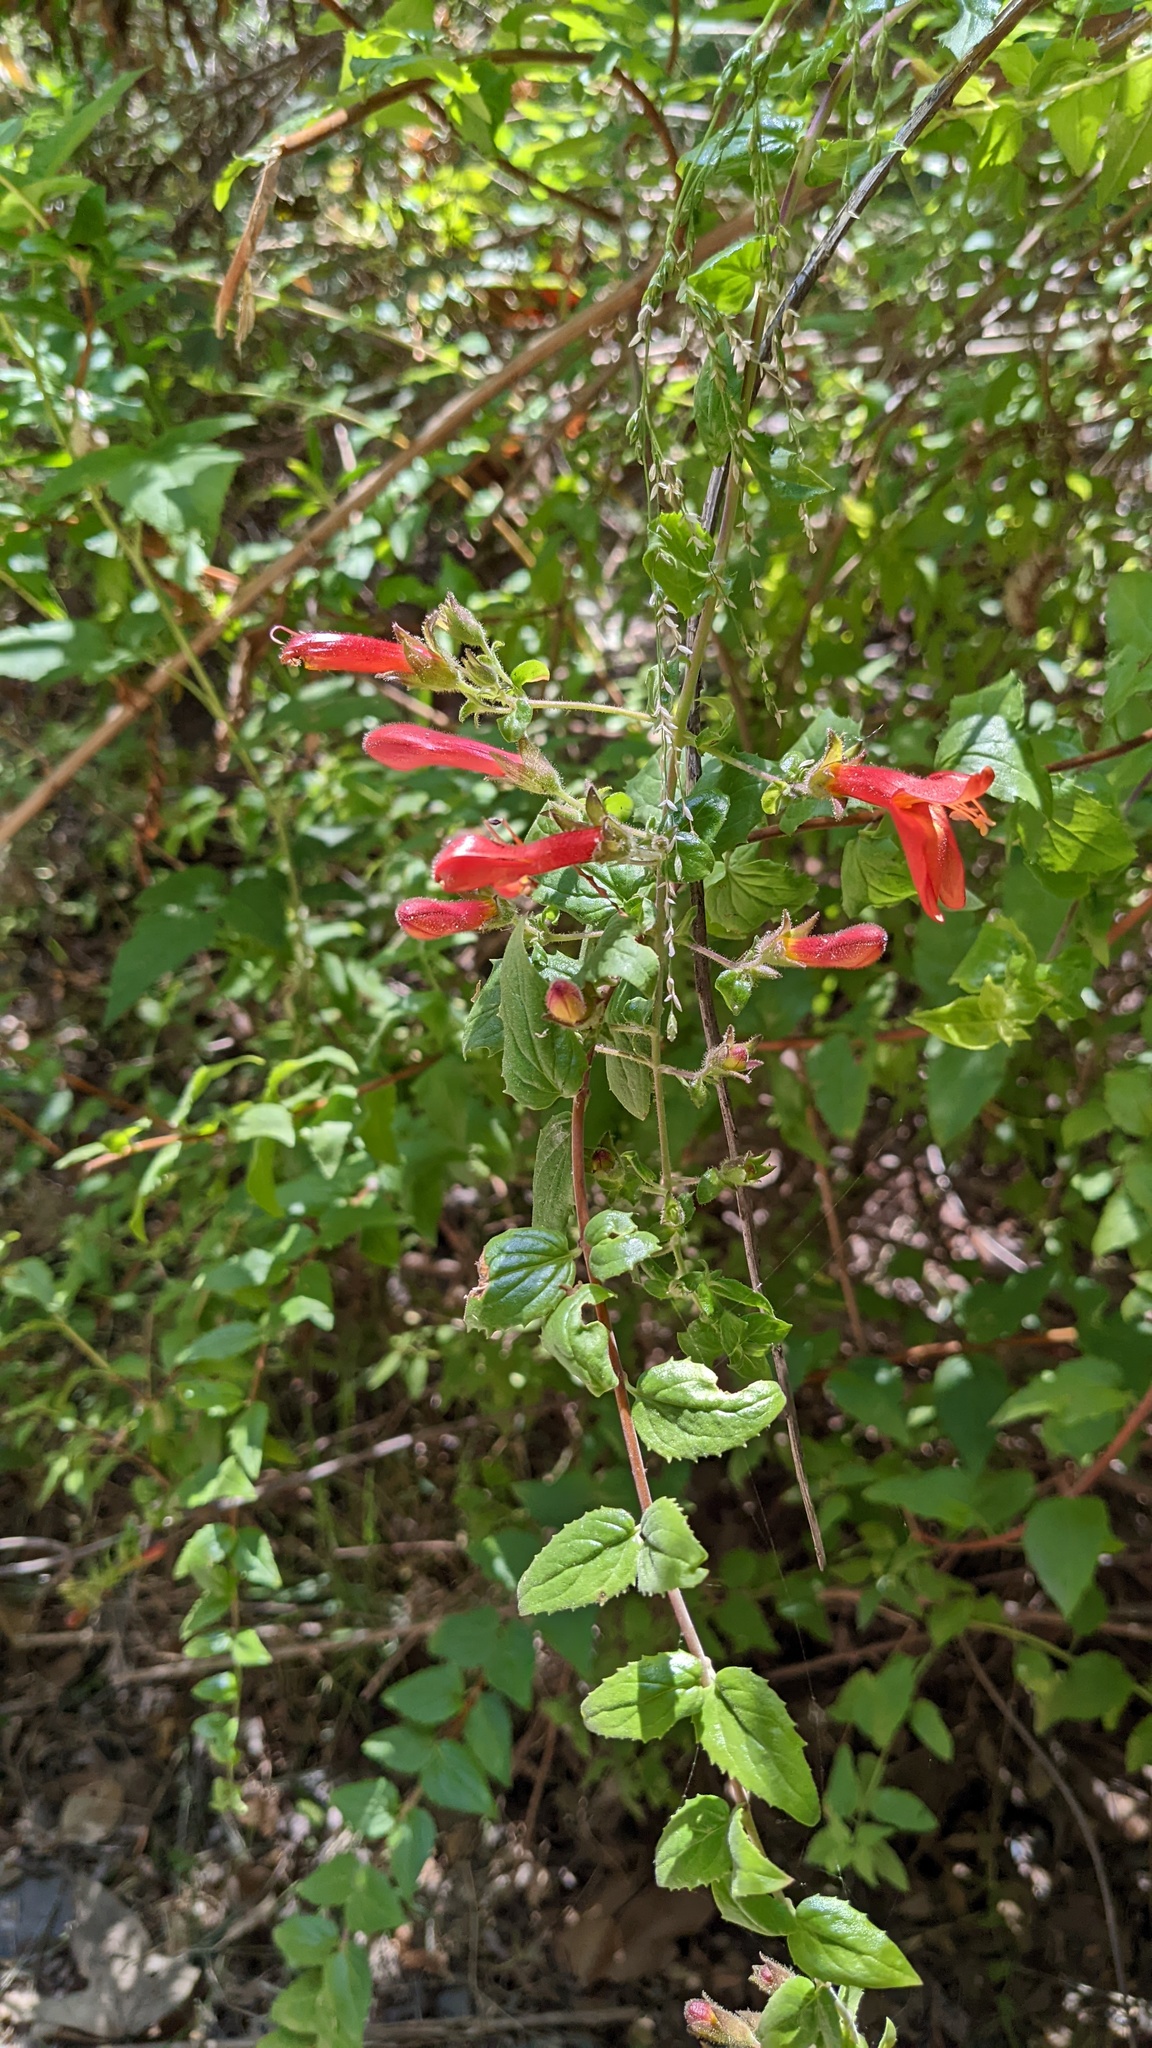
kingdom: Plantae
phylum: Tracheophyta
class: Magnoliopsida
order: Lamiales
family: Plantaginaceae
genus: Keckiella
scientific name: Keckiella cordifolia
